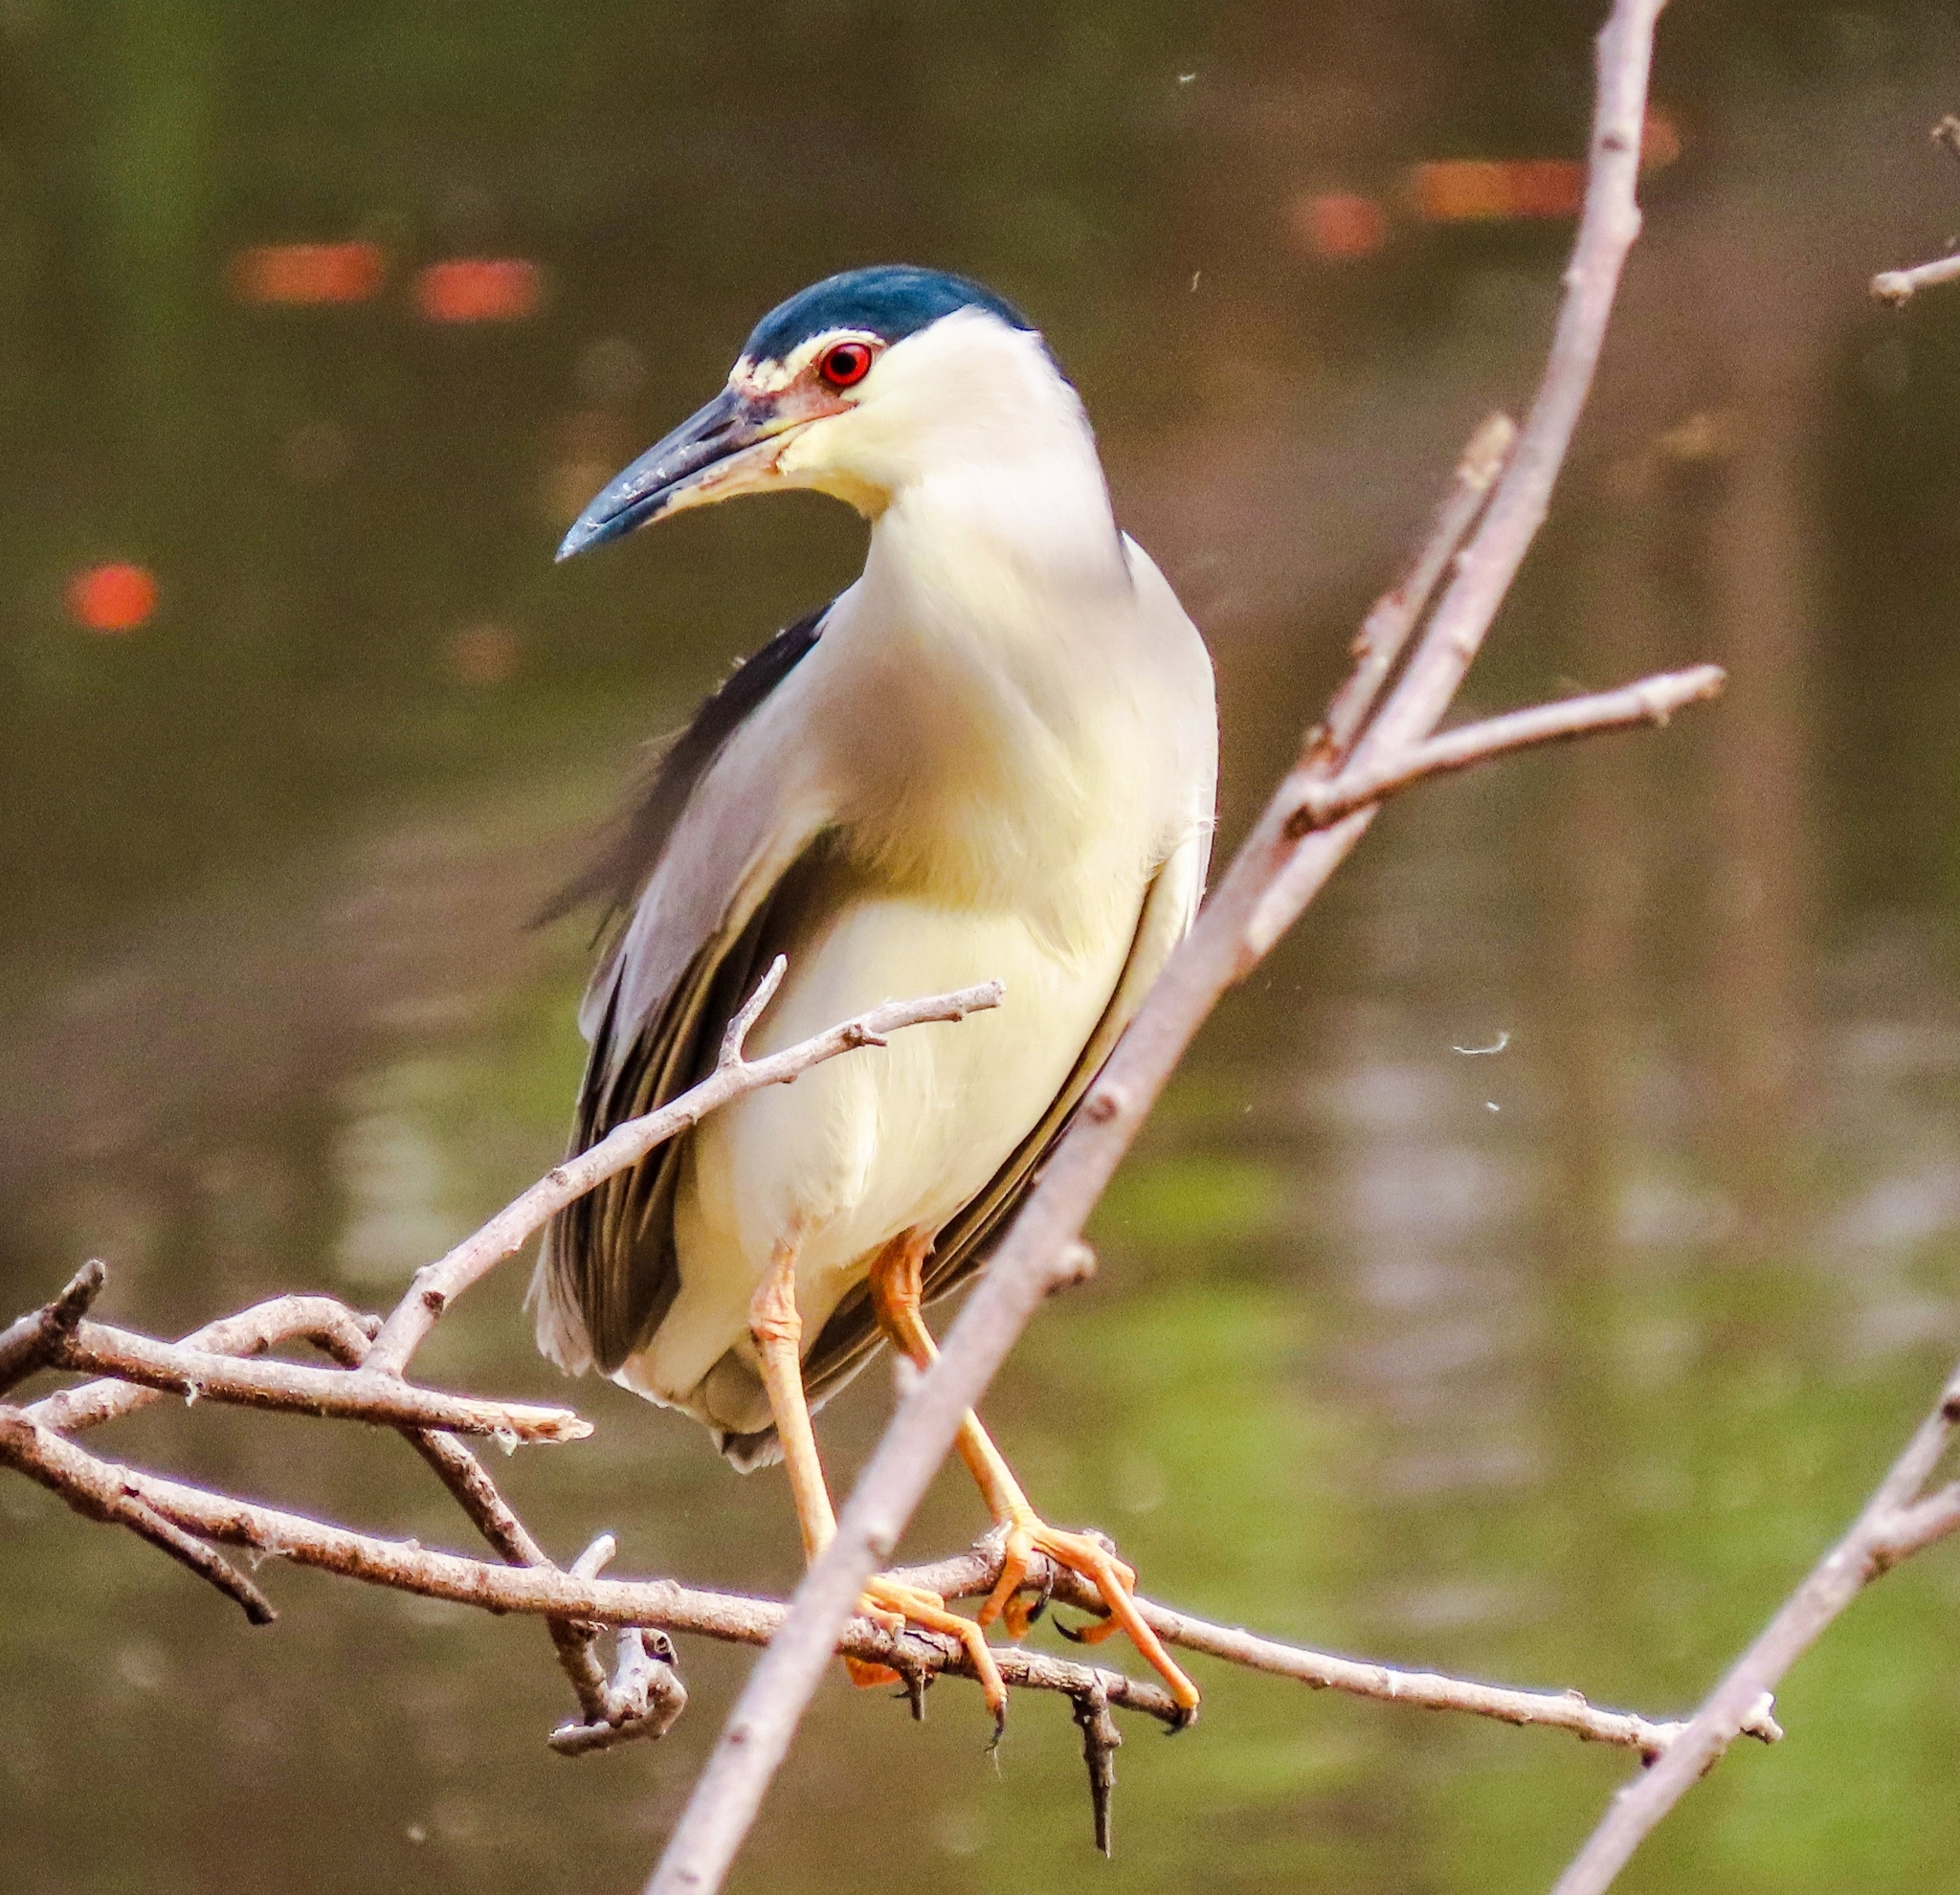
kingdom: Animalia
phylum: Chordata
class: Aves
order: Pelecaniformes
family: Ardeidae
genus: Nycticorax
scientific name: Nycticorax nycticorax
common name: Black-crowned night heron
